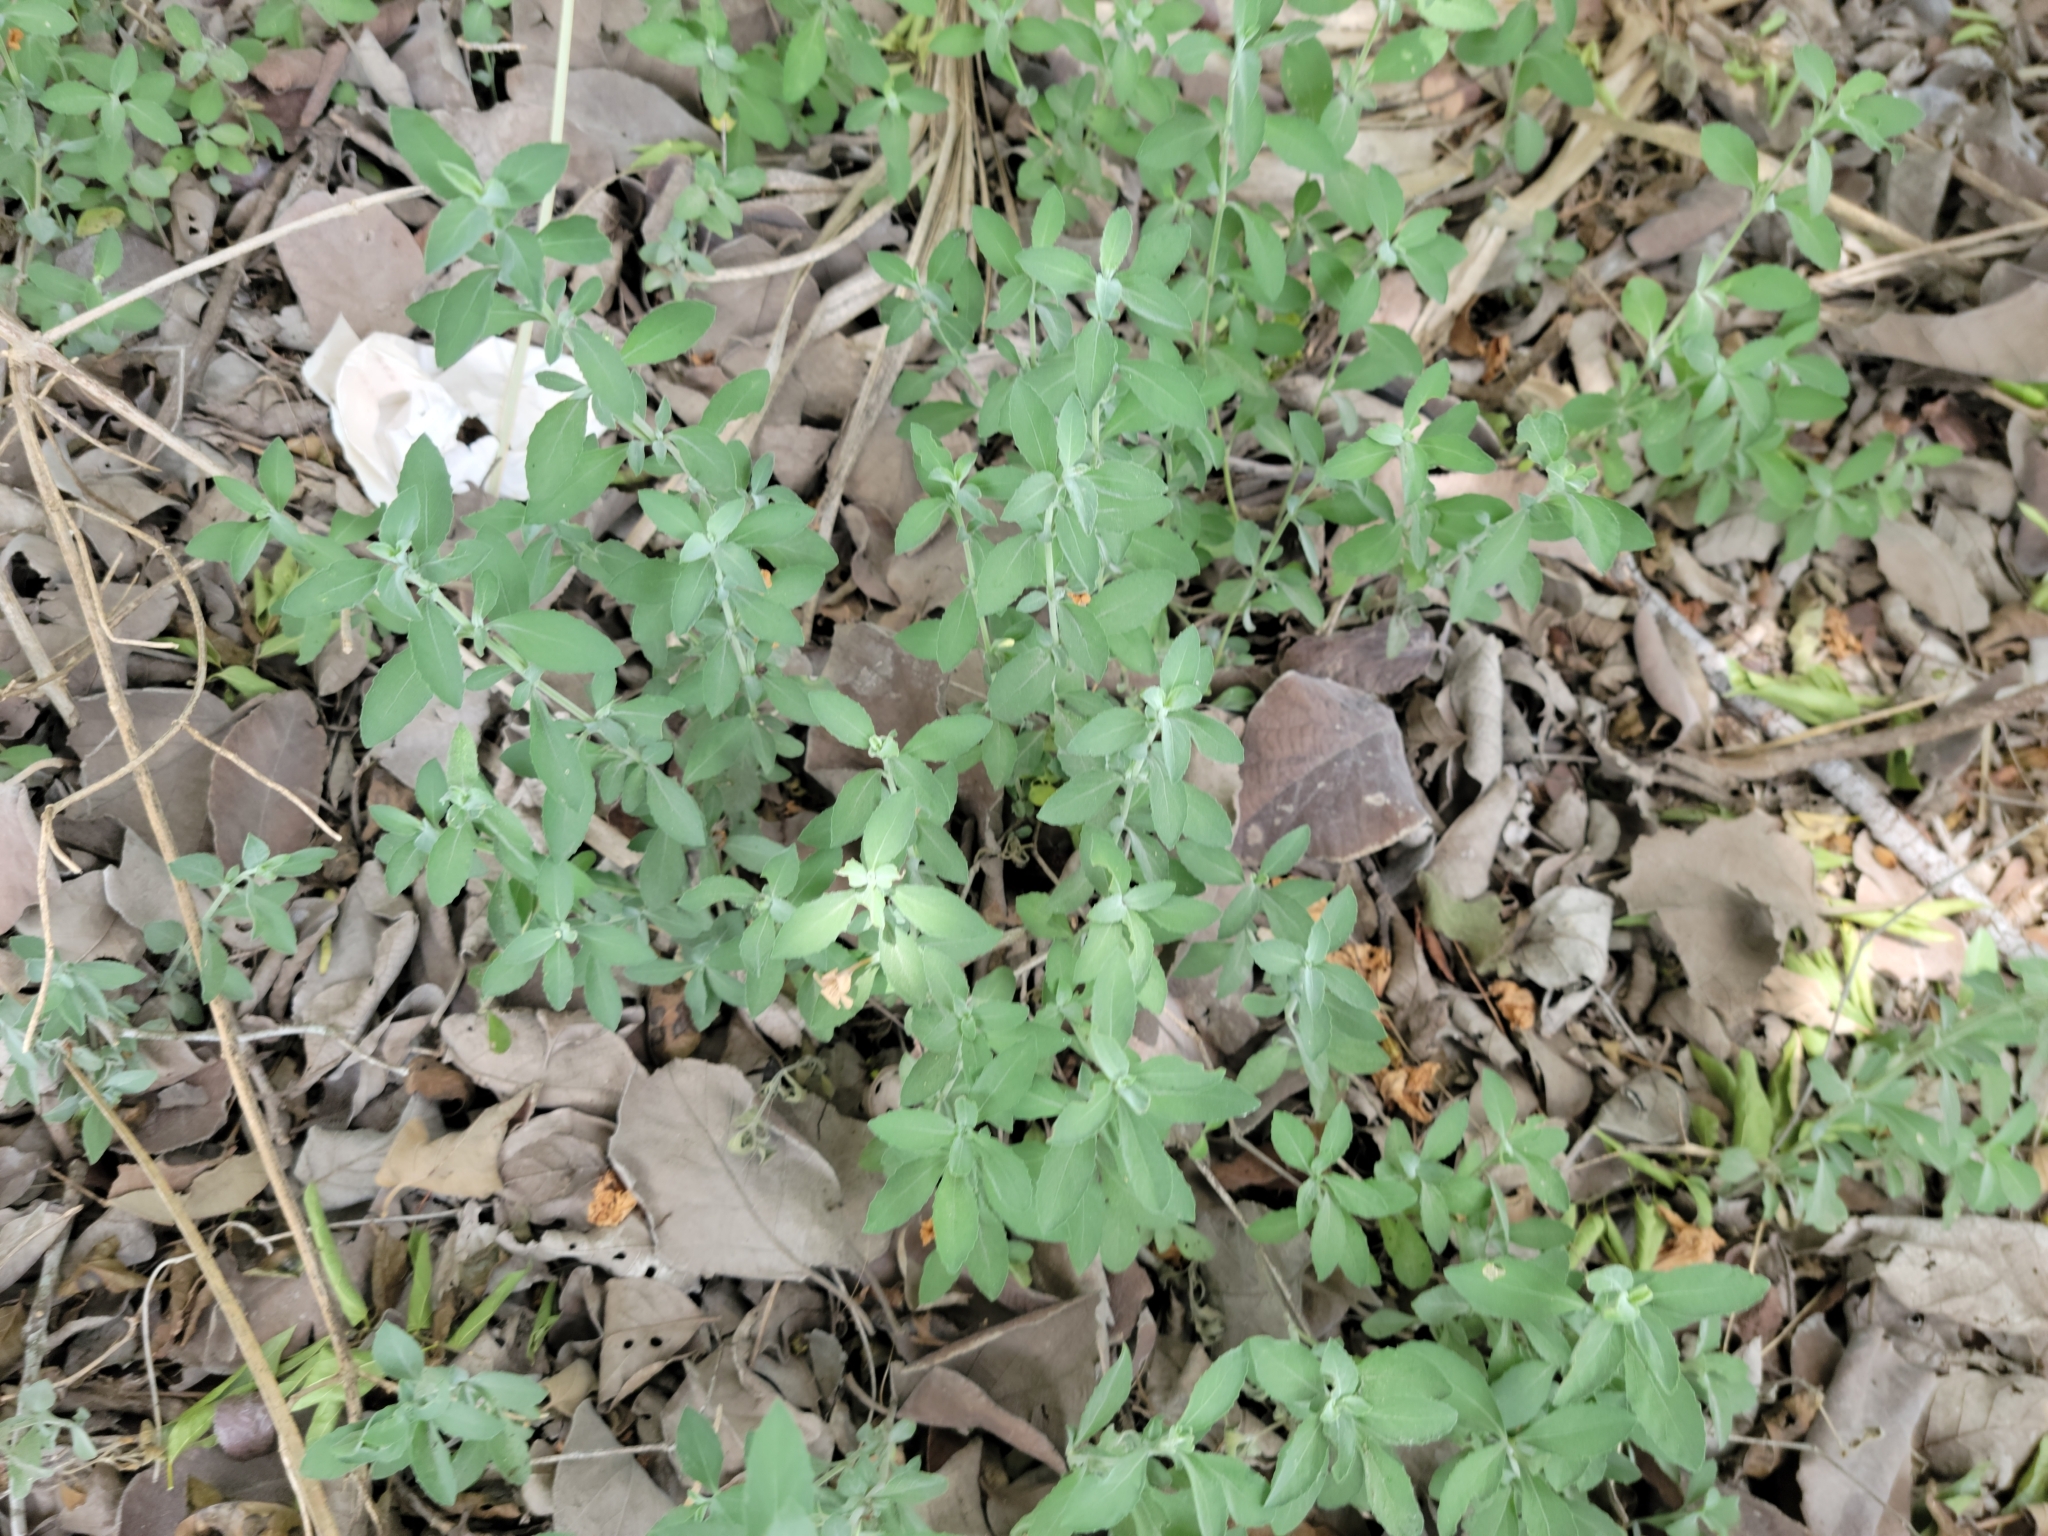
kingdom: Plantae
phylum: Tracheophyta
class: Magnoliopsida
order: Lamiales
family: Acanthaceae
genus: Dyschoriste
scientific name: Dyschoriste crenulata
